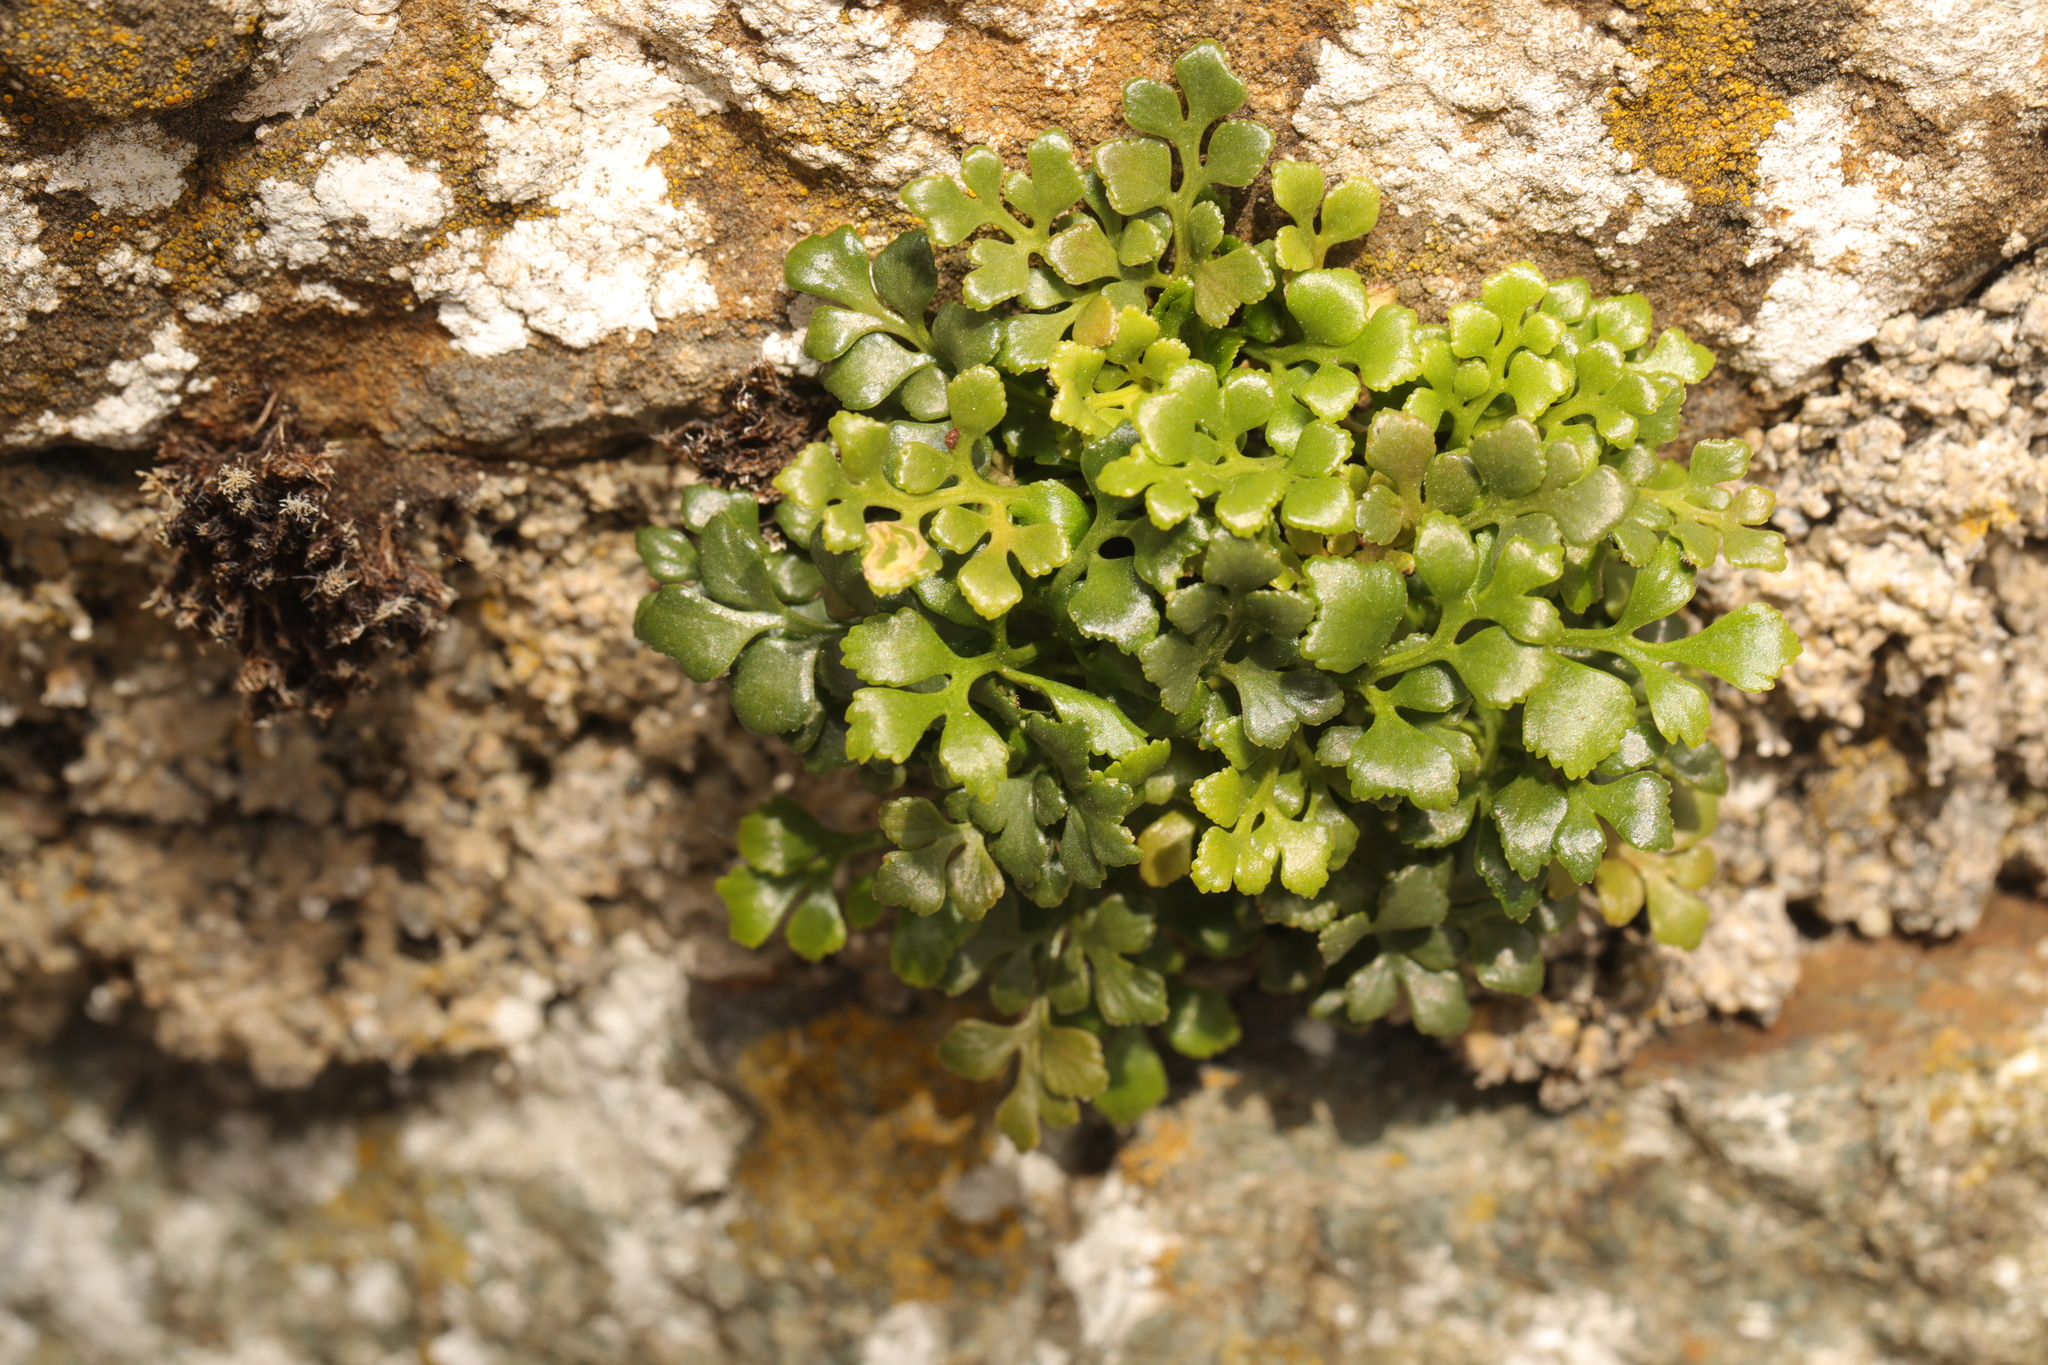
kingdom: Plantae
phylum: Tracheophyta
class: Polypodiopsida
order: Polypodiales
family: Aspleniaceae
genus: Asplenium
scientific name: Asplenium ruta-muraria
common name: Wall-rue
